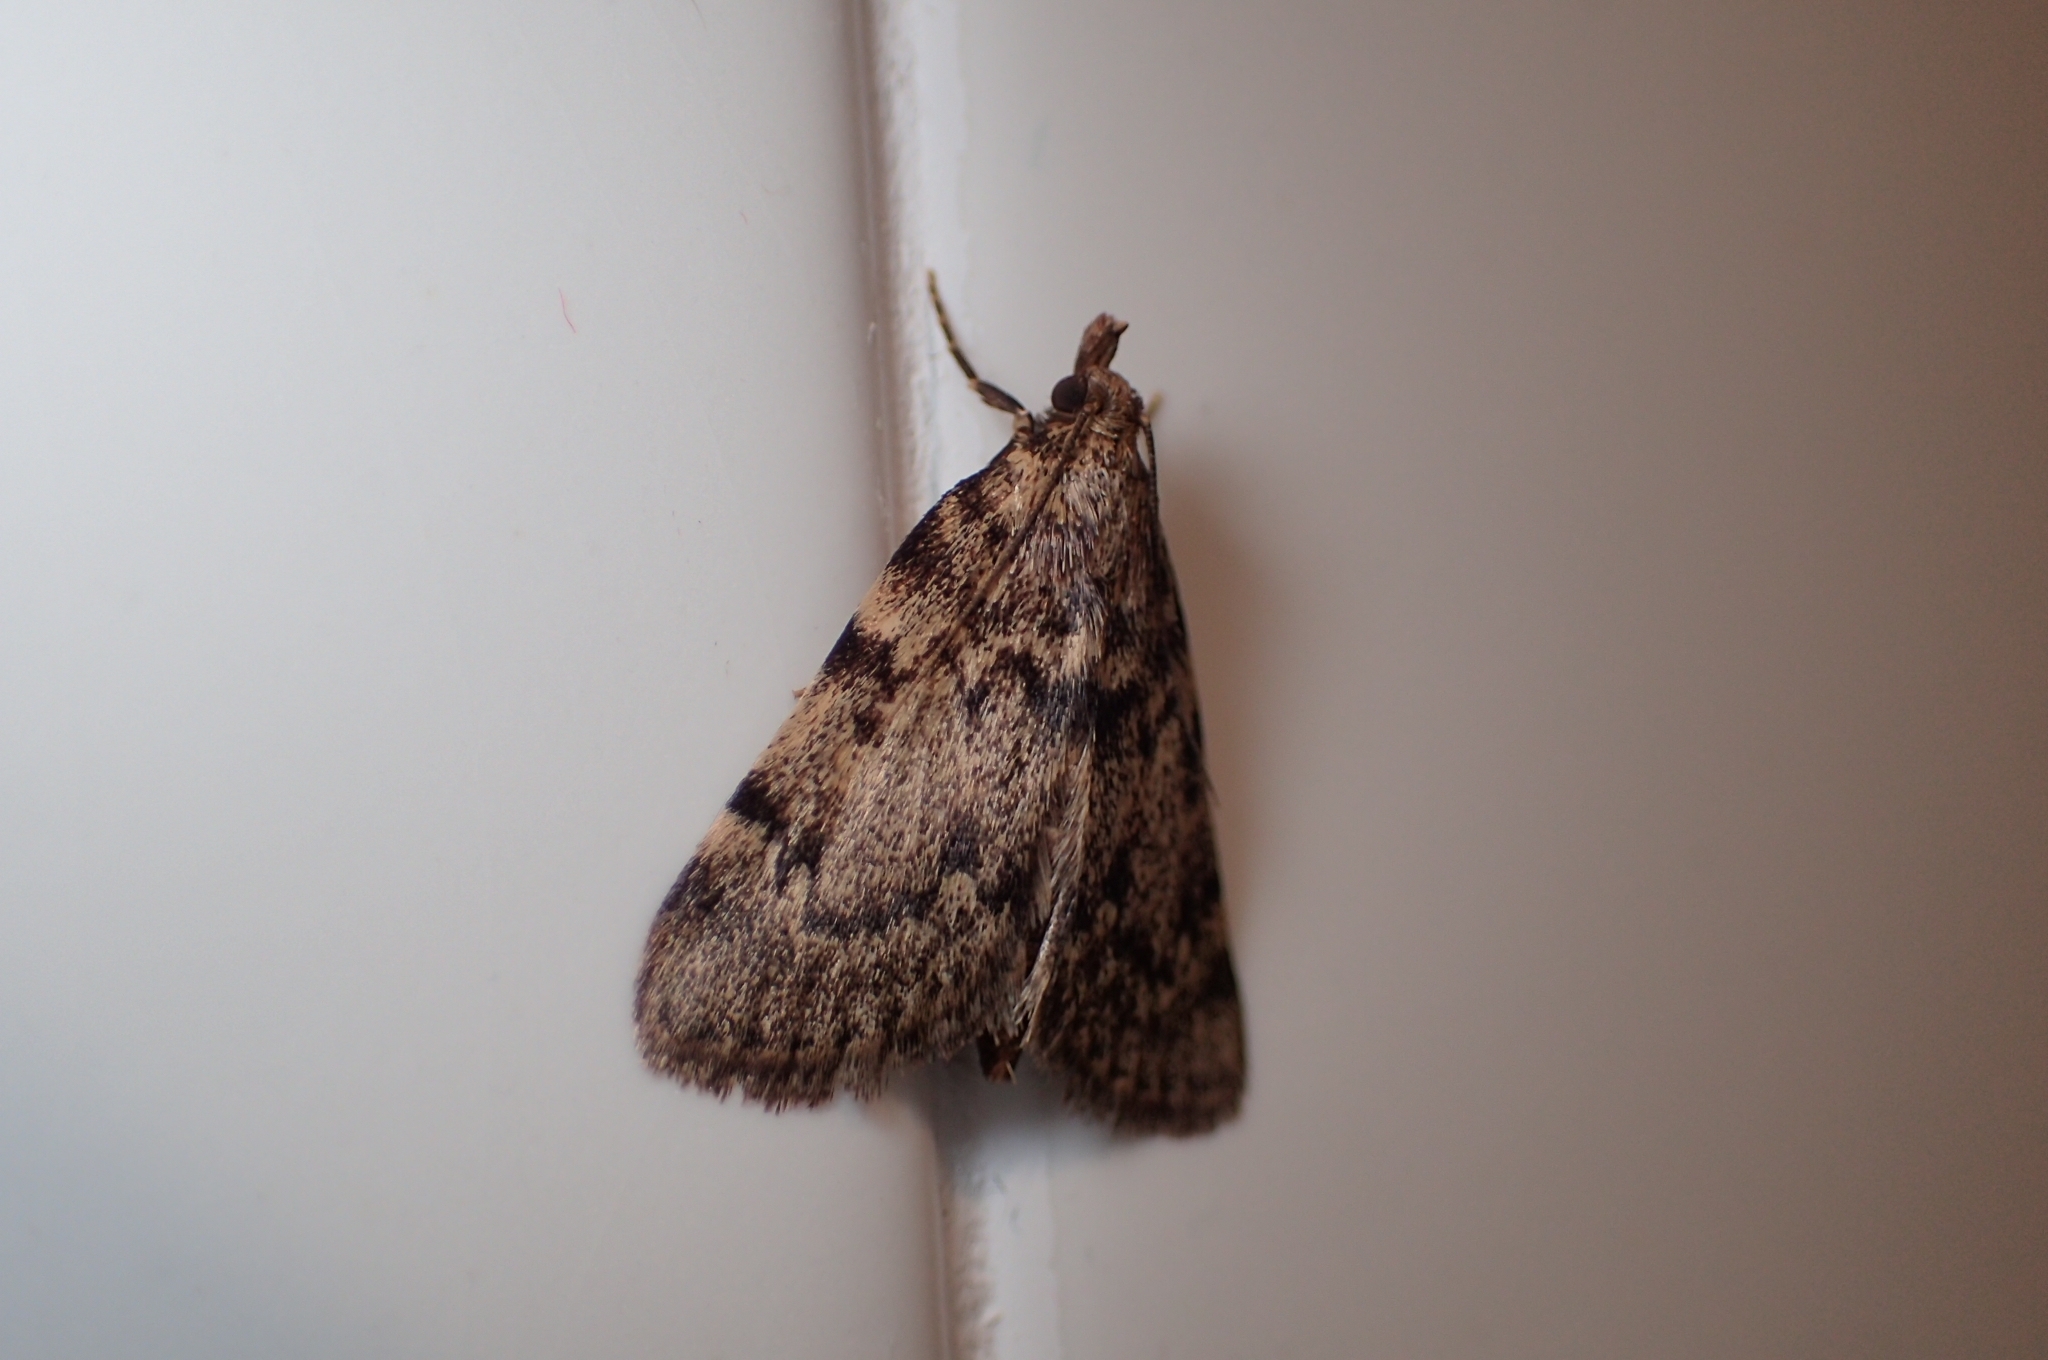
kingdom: Animalia
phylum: Arthropoda
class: Insecta
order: Lepidoptera
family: Pyralidae
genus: Aglossa
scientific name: Aglossa pinguinalis
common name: Large tabby
